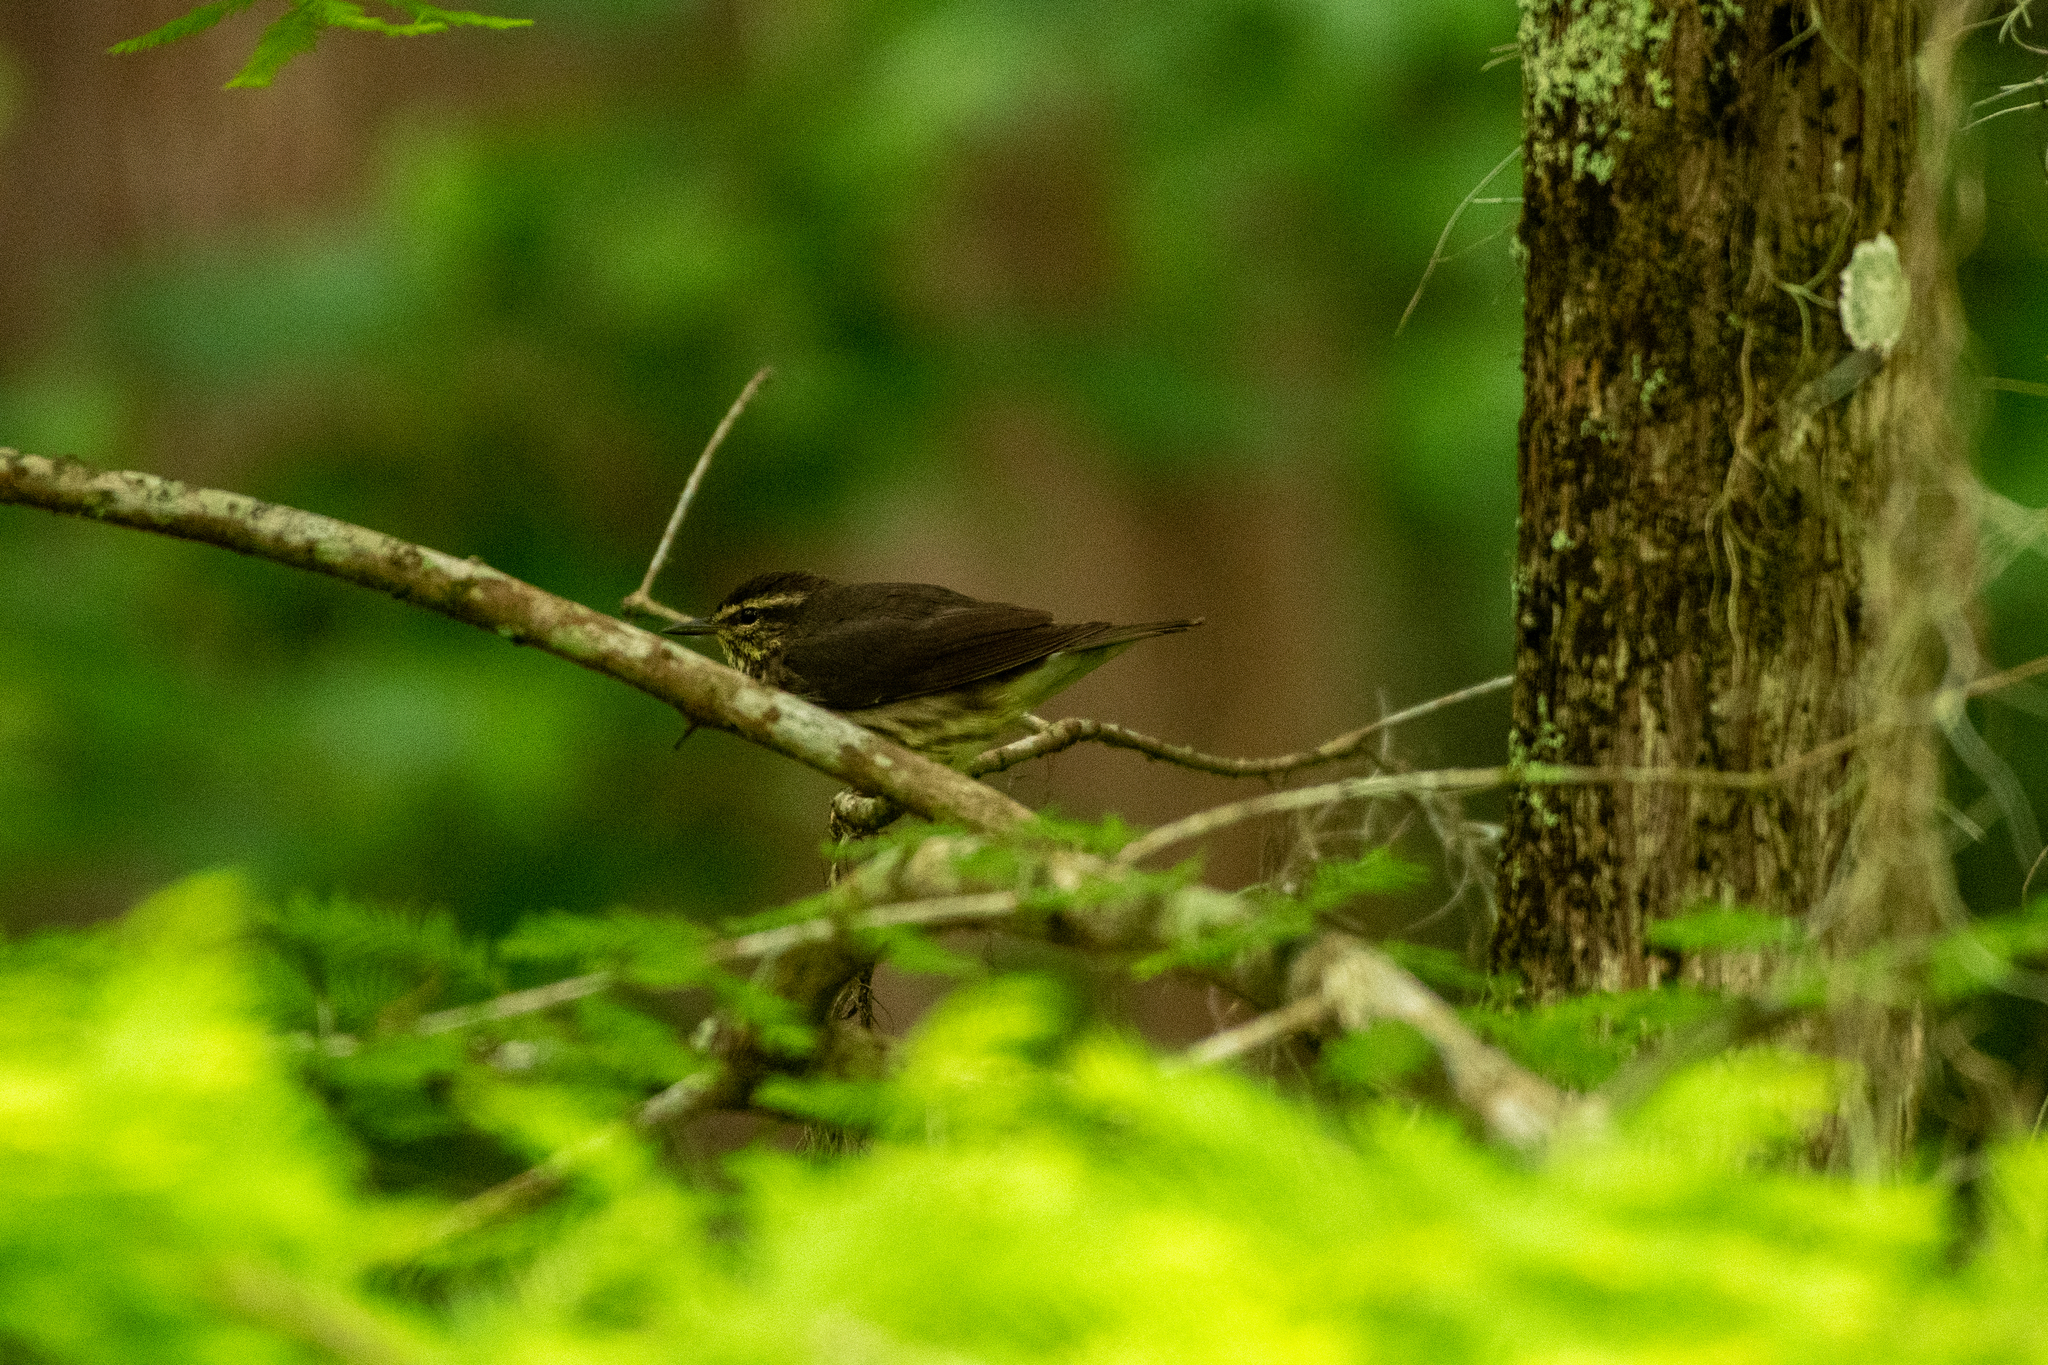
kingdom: Animalia
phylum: Chordata
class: Aves
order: Passeriformes
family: Parulidae
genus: Parkesia
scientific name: Parkesia noveboracensis
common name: Northern waterthrush
